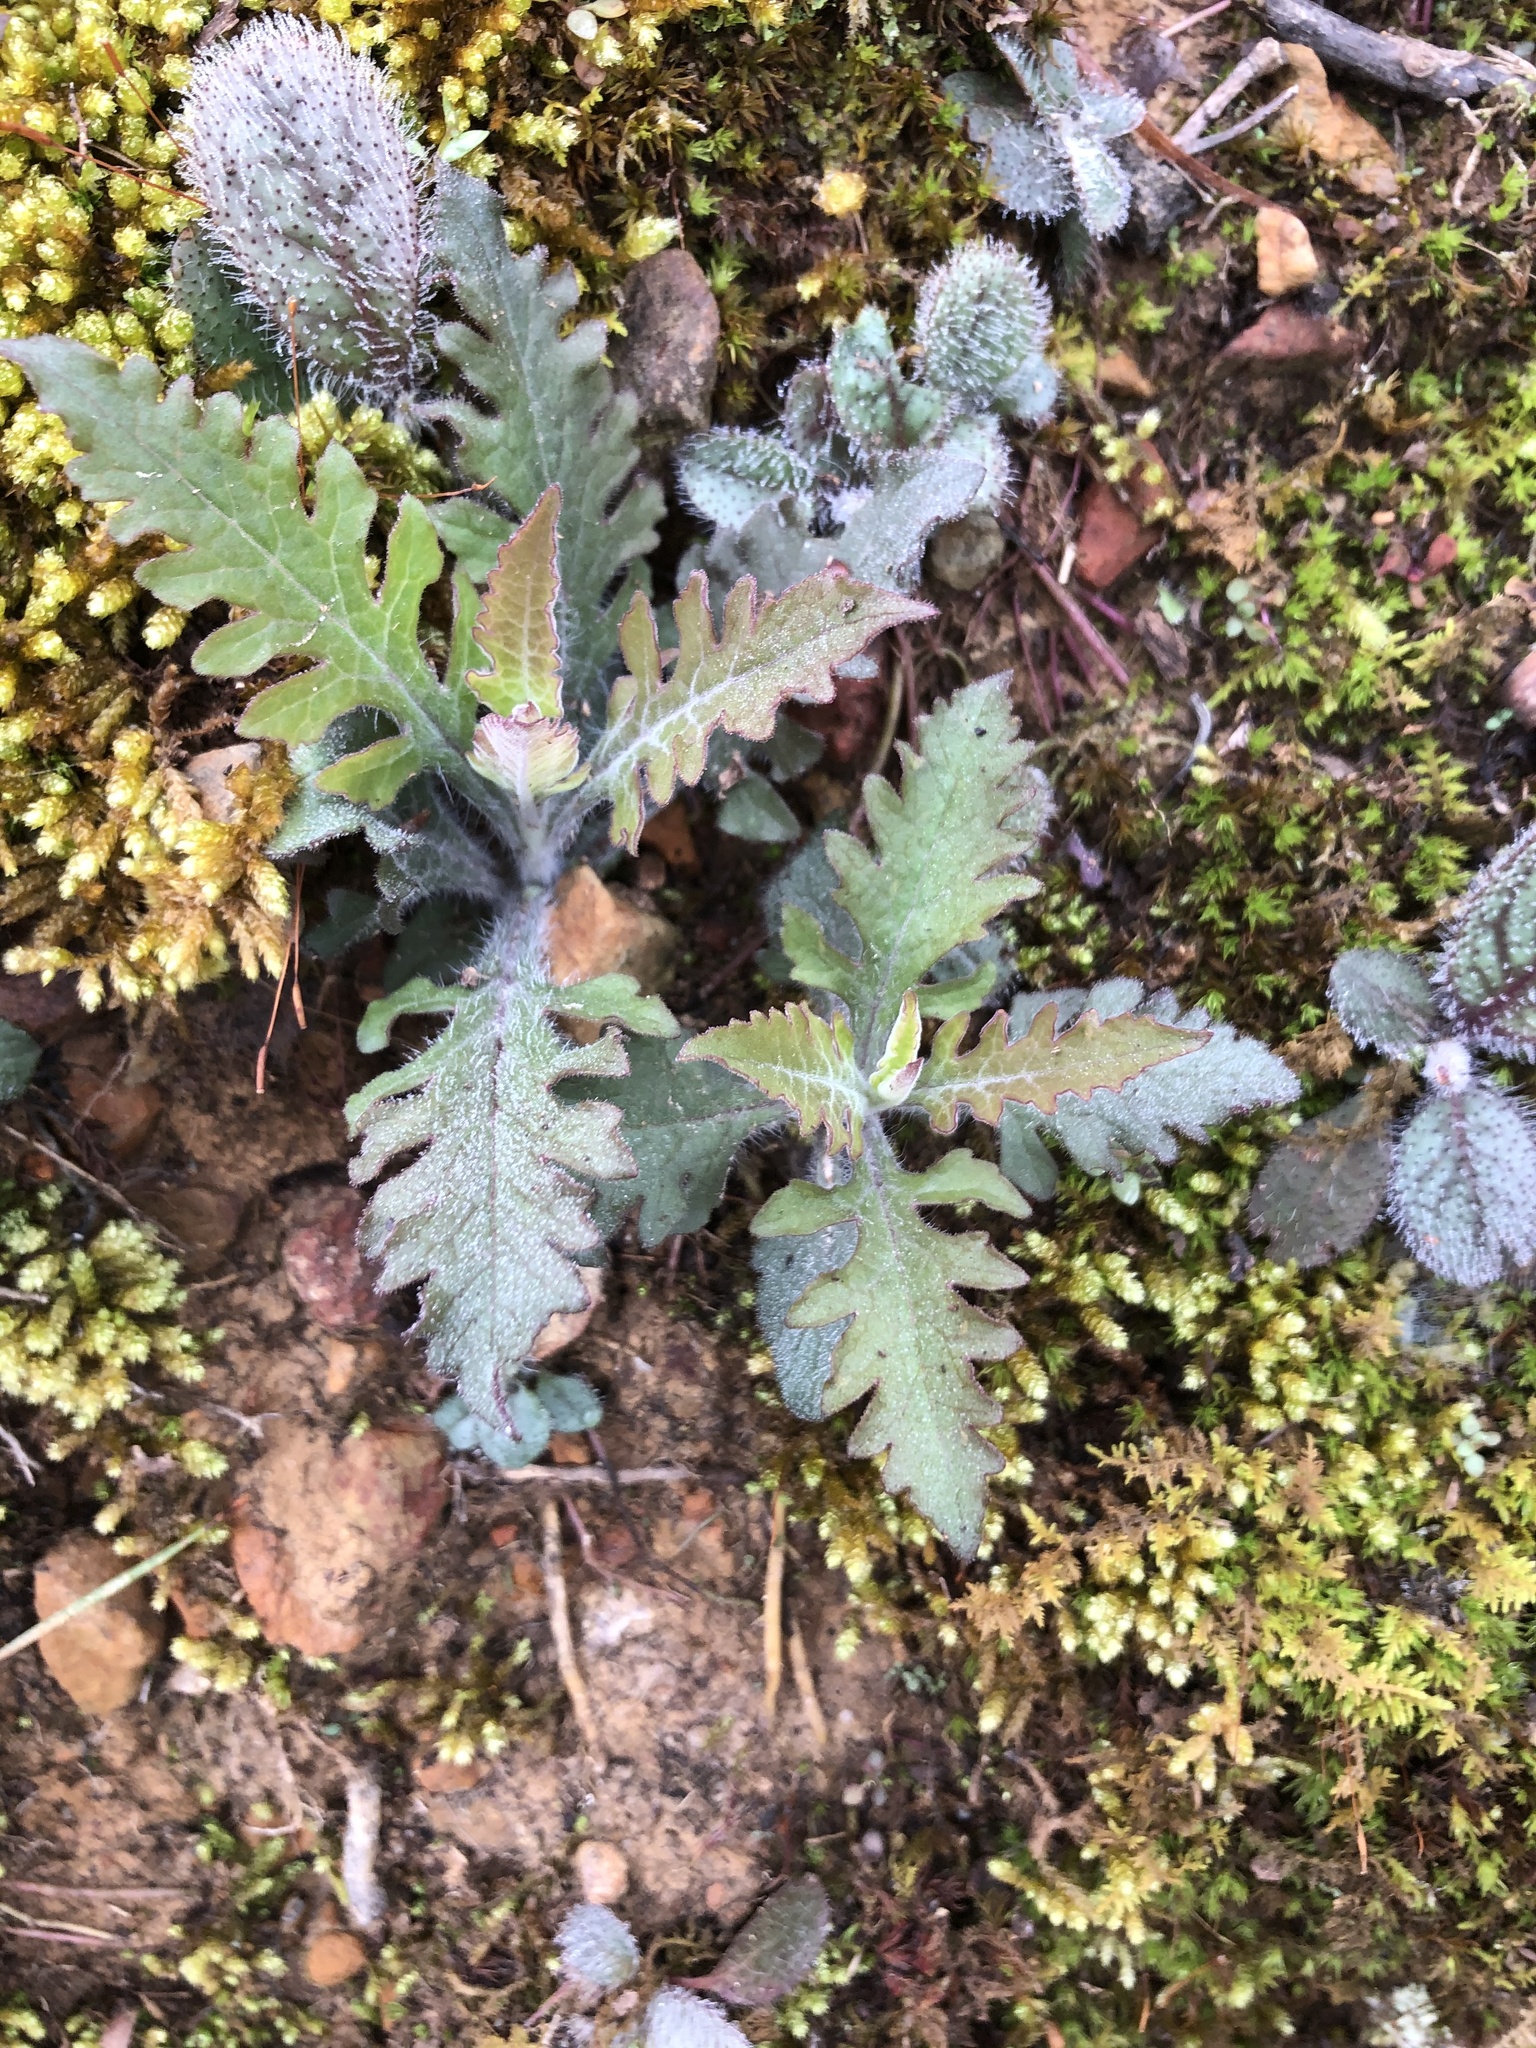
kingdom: Plantae
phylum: Tracheophyta
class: Magnoliopsida
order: Lamiales
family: Orobanchaceae
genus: Pedicularis
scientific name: Pedicularis canadensis
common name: Early lousewort
